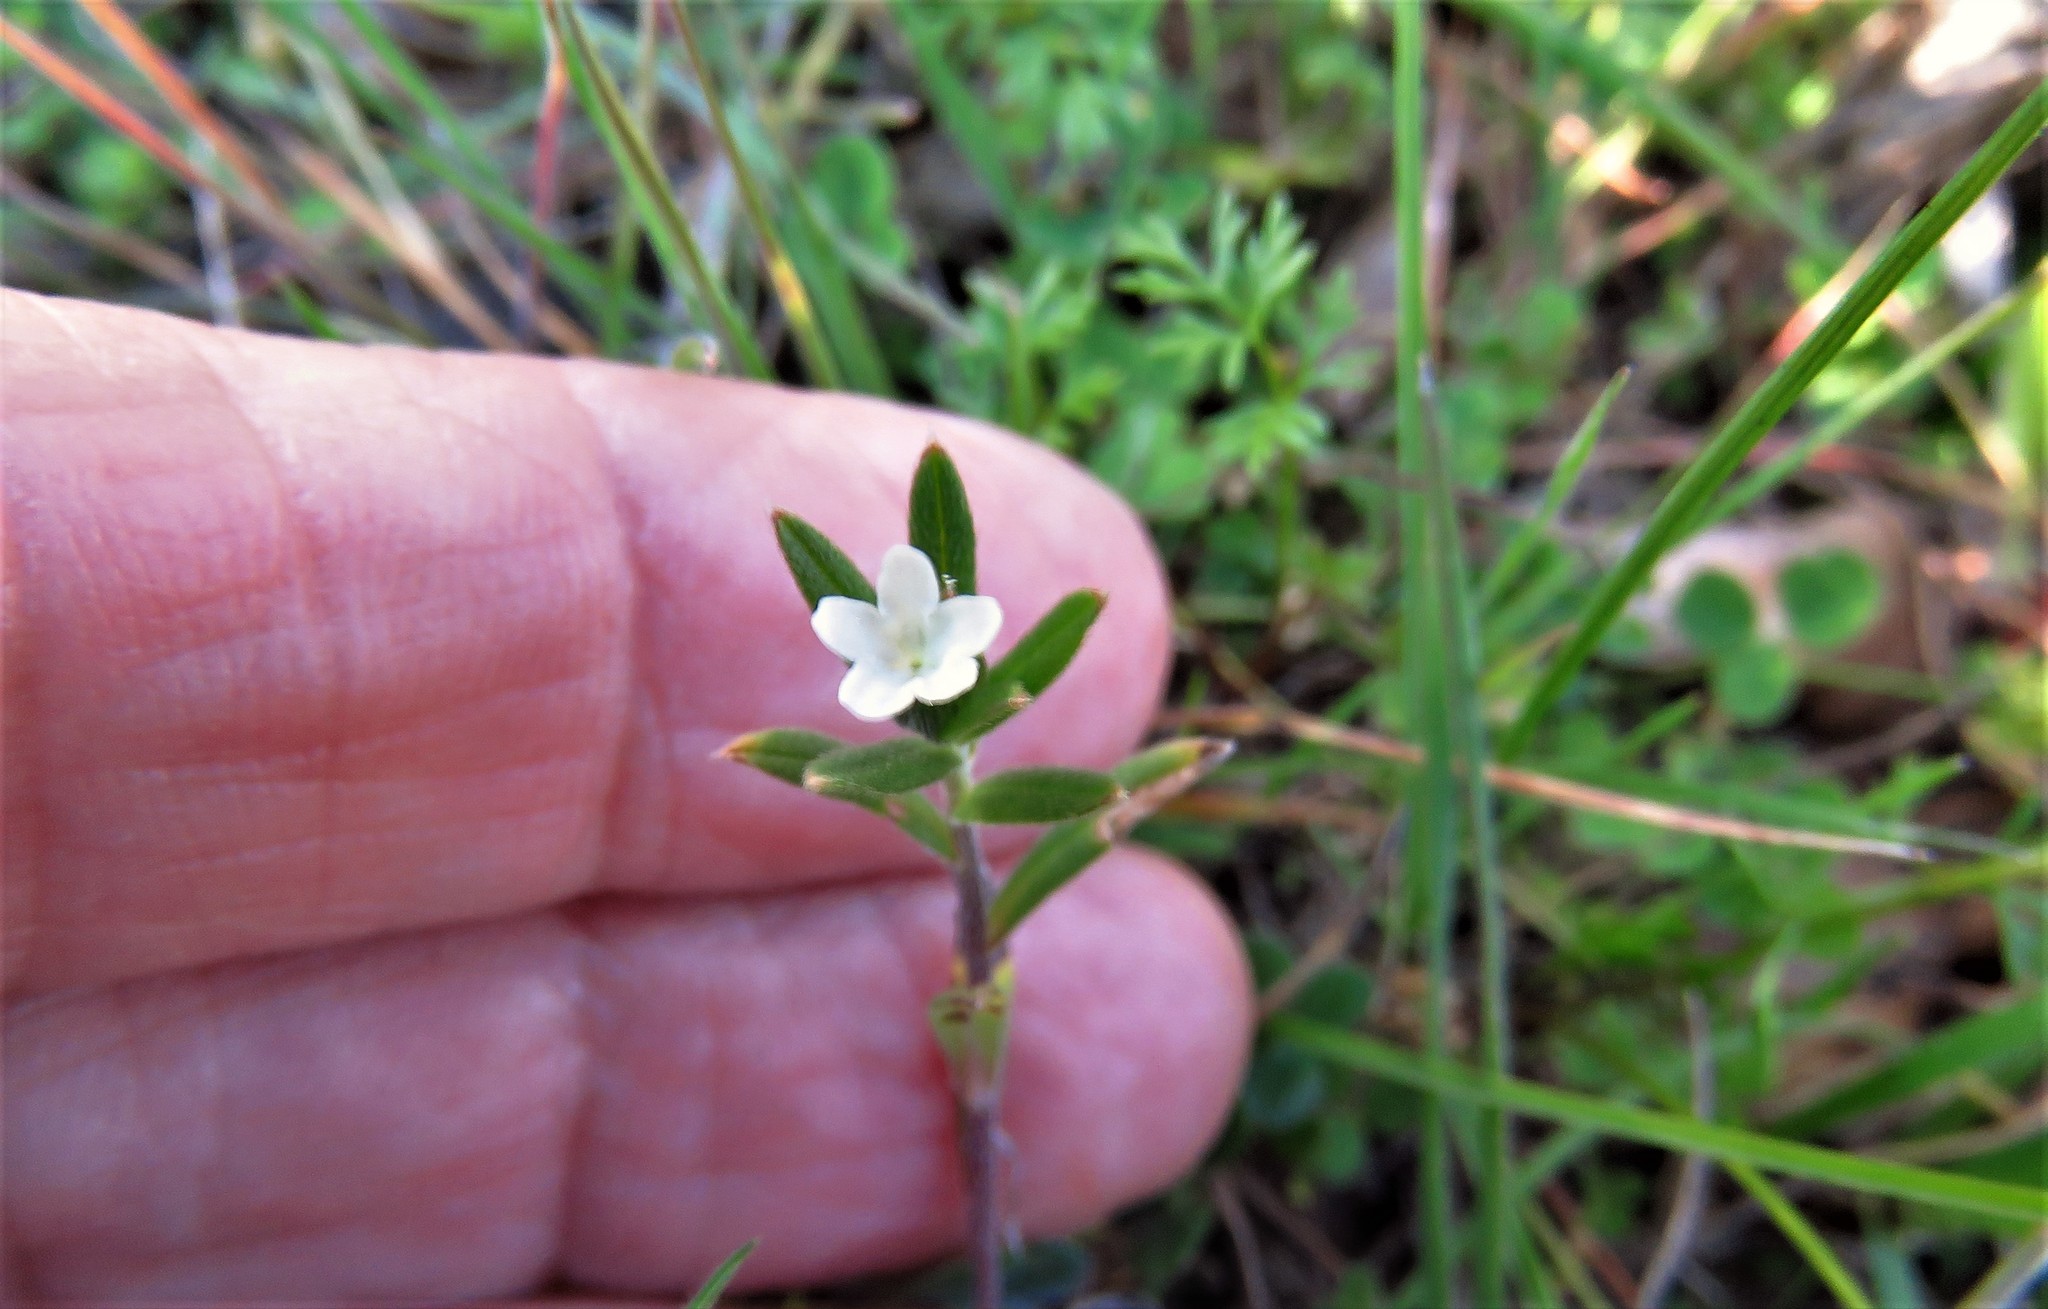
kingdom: Plantae
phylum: Tracheophyta
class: Magnoliopsida
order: Boraginales
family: Boraginaceae
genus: Buglossoides
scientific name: Buglossoides arvensis
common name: Corn gromwell
